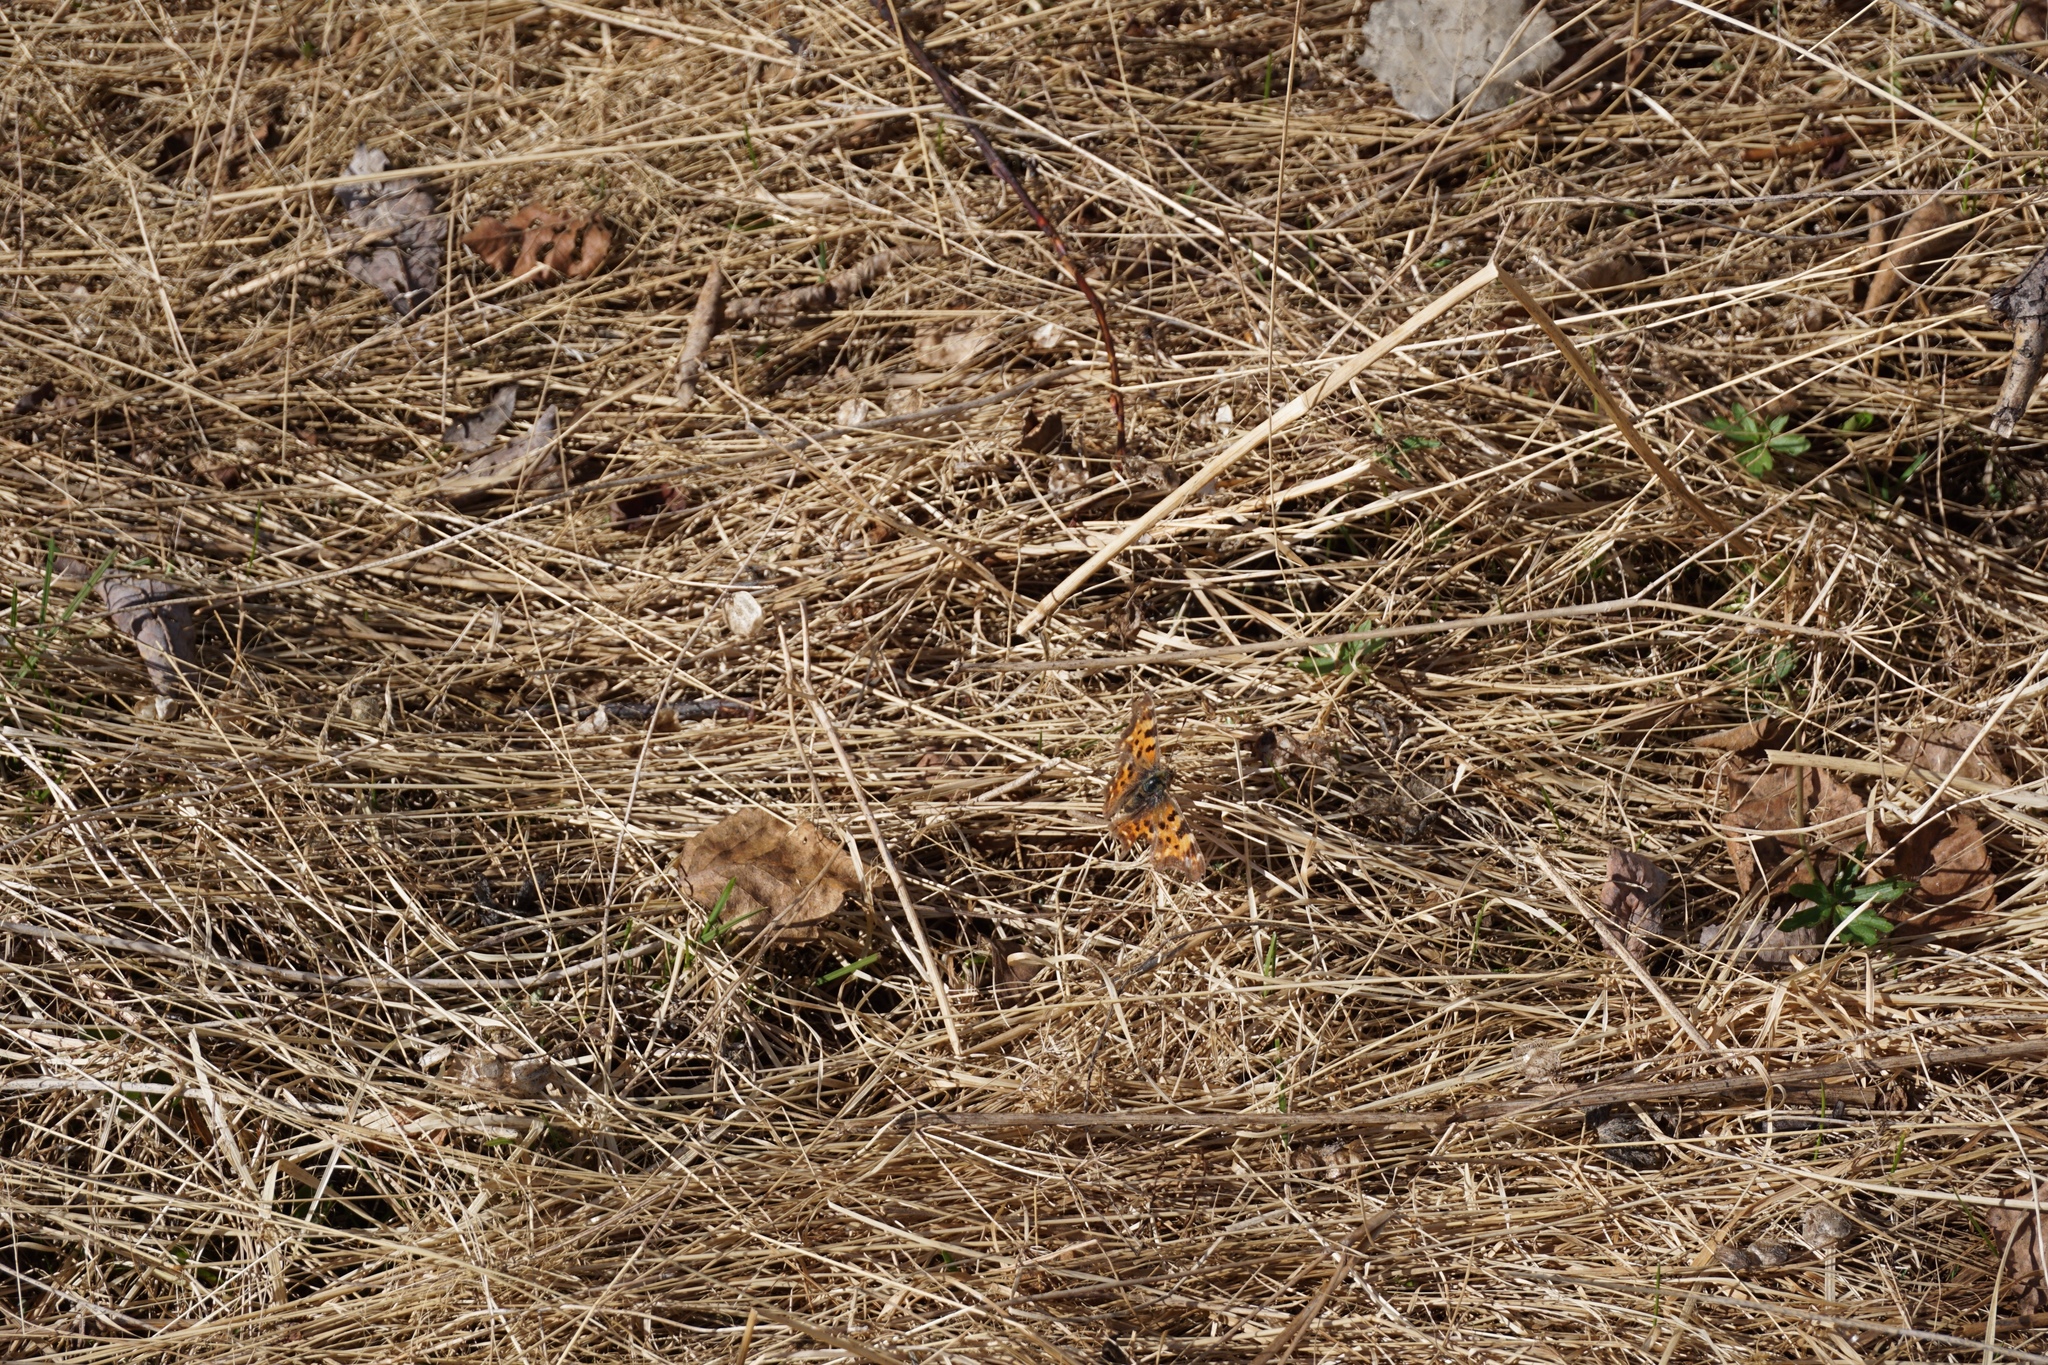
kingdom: Animalia
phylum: Arthropoda
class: Insecta
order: Lepidoptera
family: Nymphalidae
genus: Polygonia
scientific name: Polygonia c-album
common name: Comma
